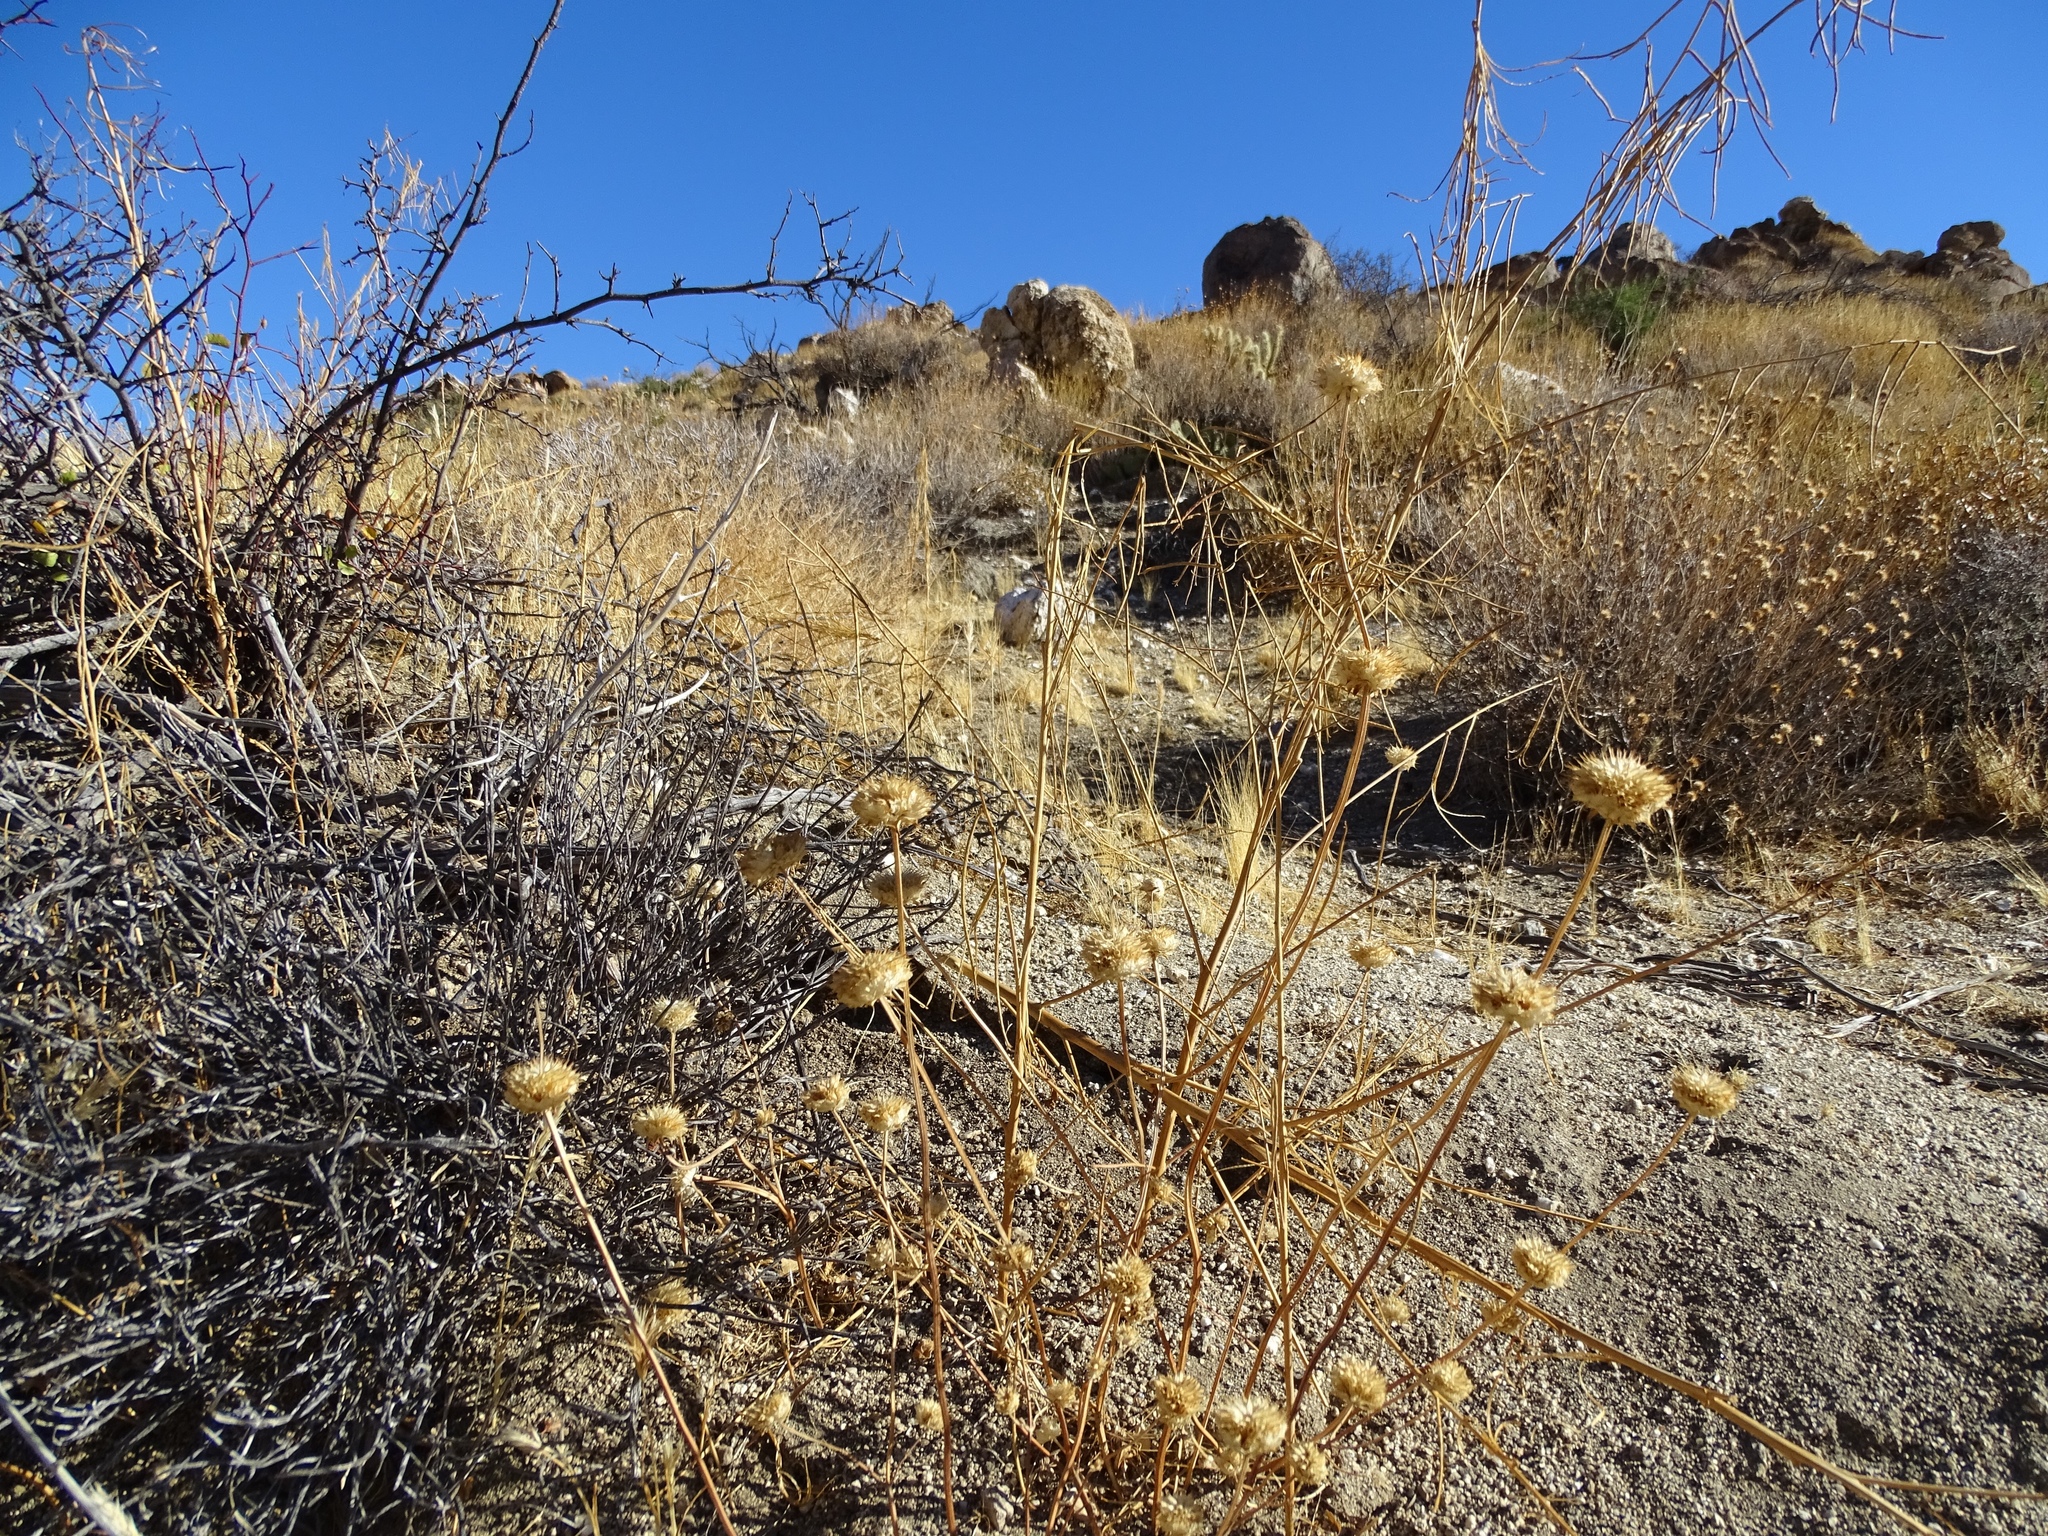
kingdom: Plantae
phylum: Tracheophyta
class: Magnoliopsida
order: Lamiales
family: Lamiaceae
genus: Salvia
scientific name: Salvia columbariae
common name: Chia
